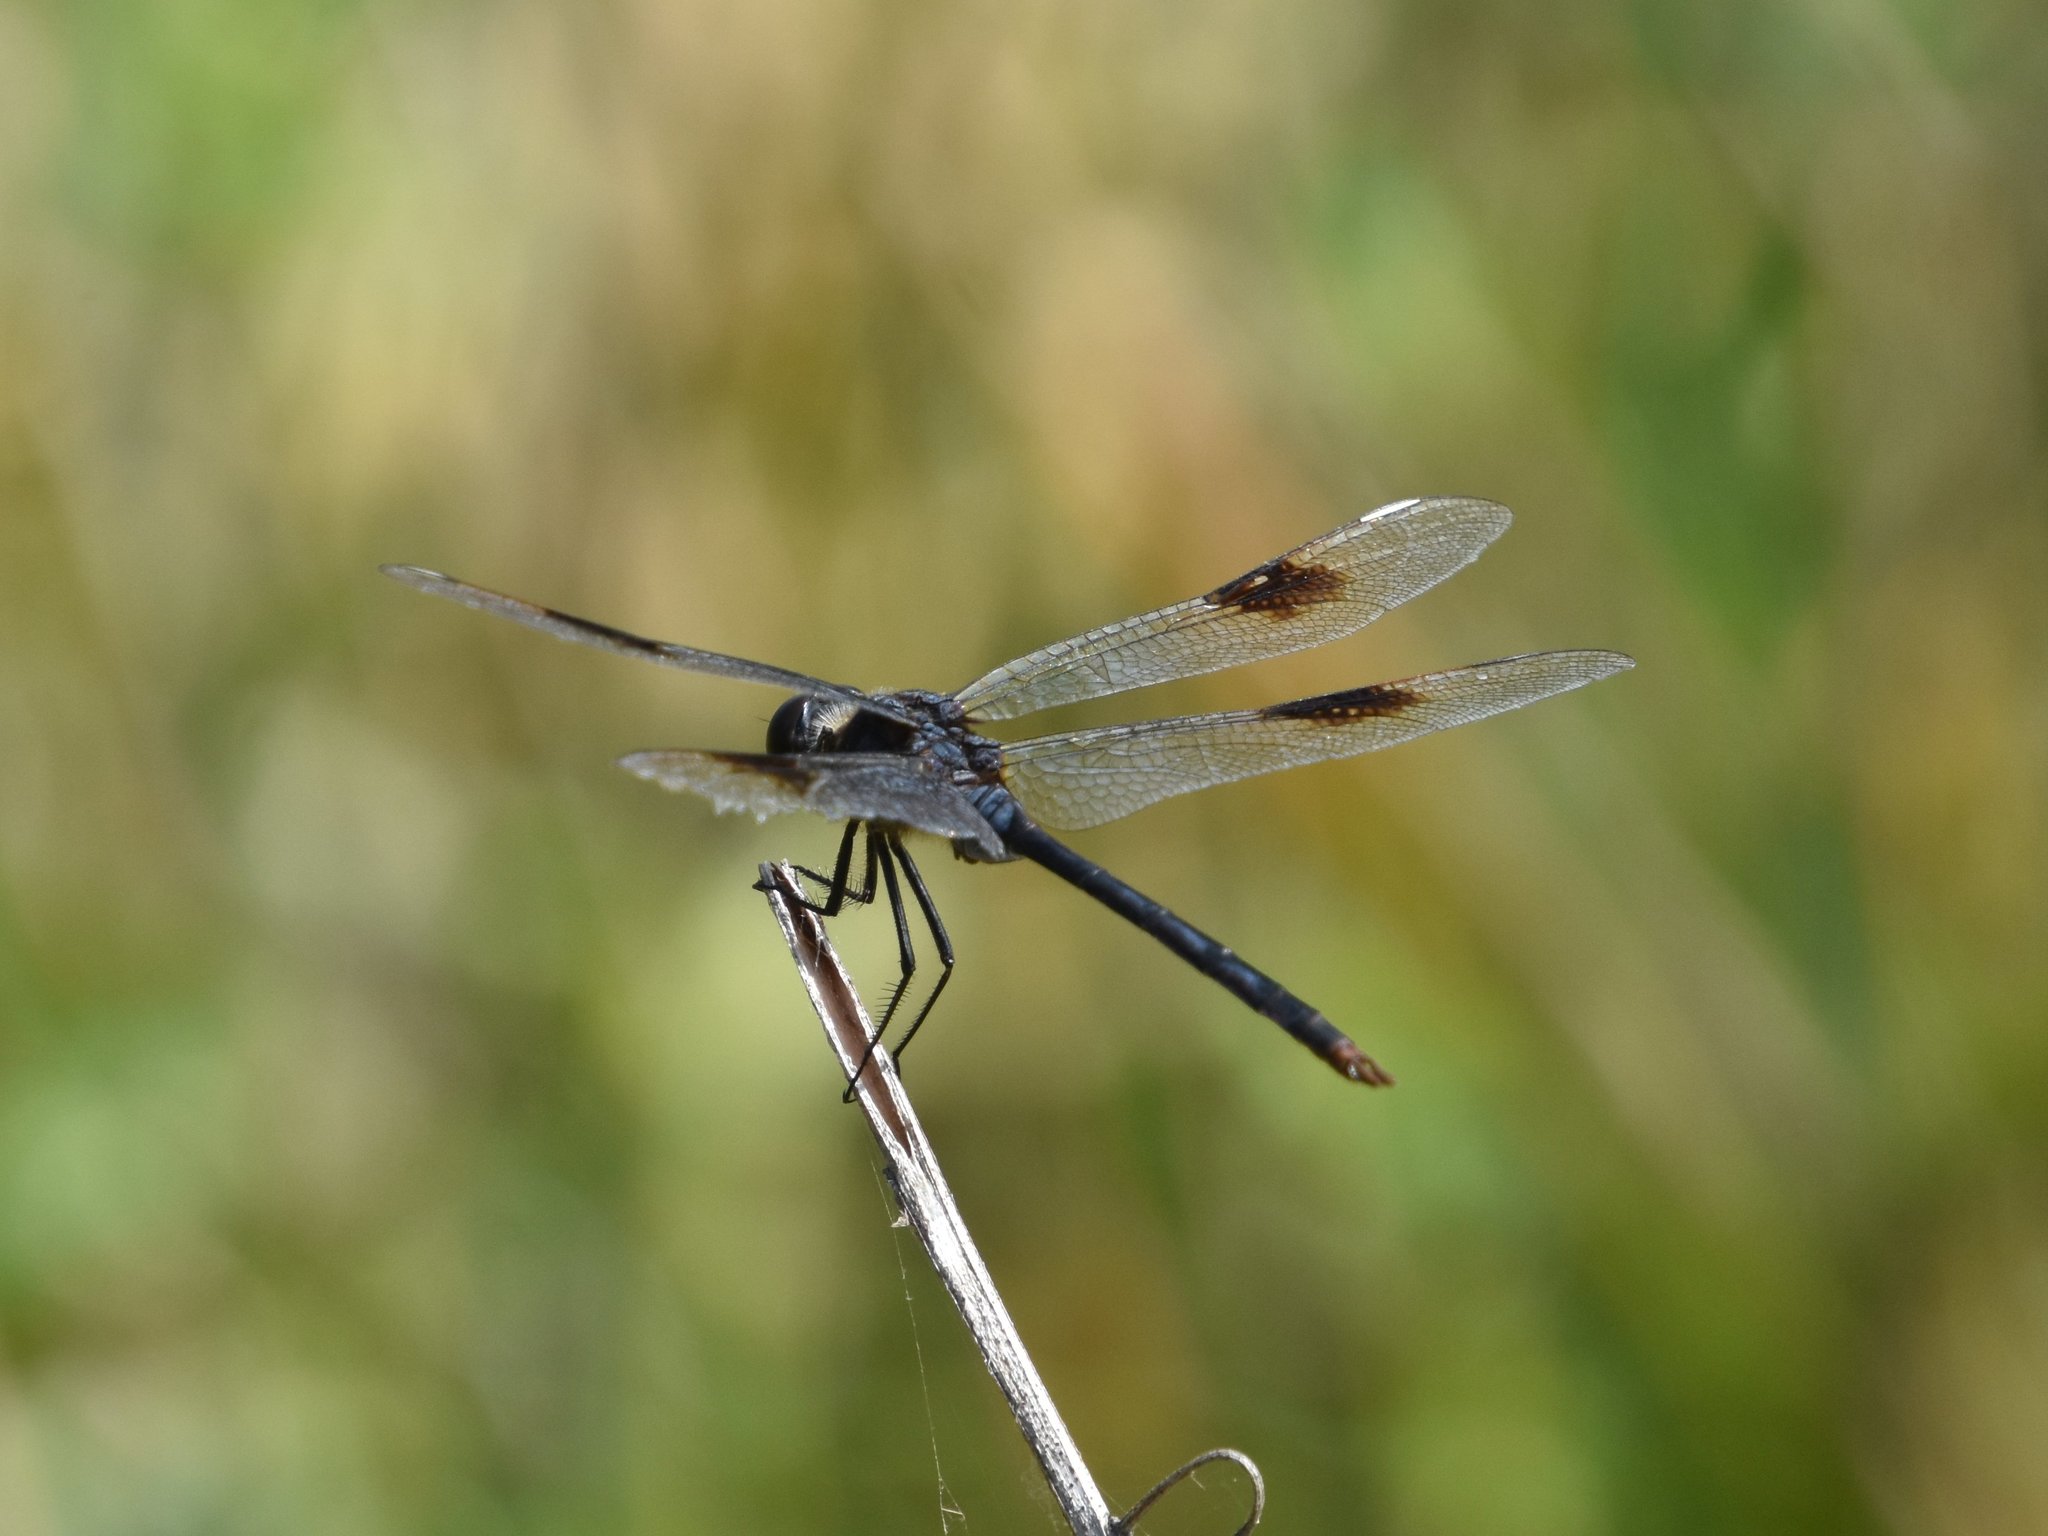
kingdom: Animalia
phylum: Arthropoda
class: Insecta
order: Odonata
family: Libellulidae
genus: Brachymesia
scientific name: Brachymesia gravida
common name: Four-spotted pennant
